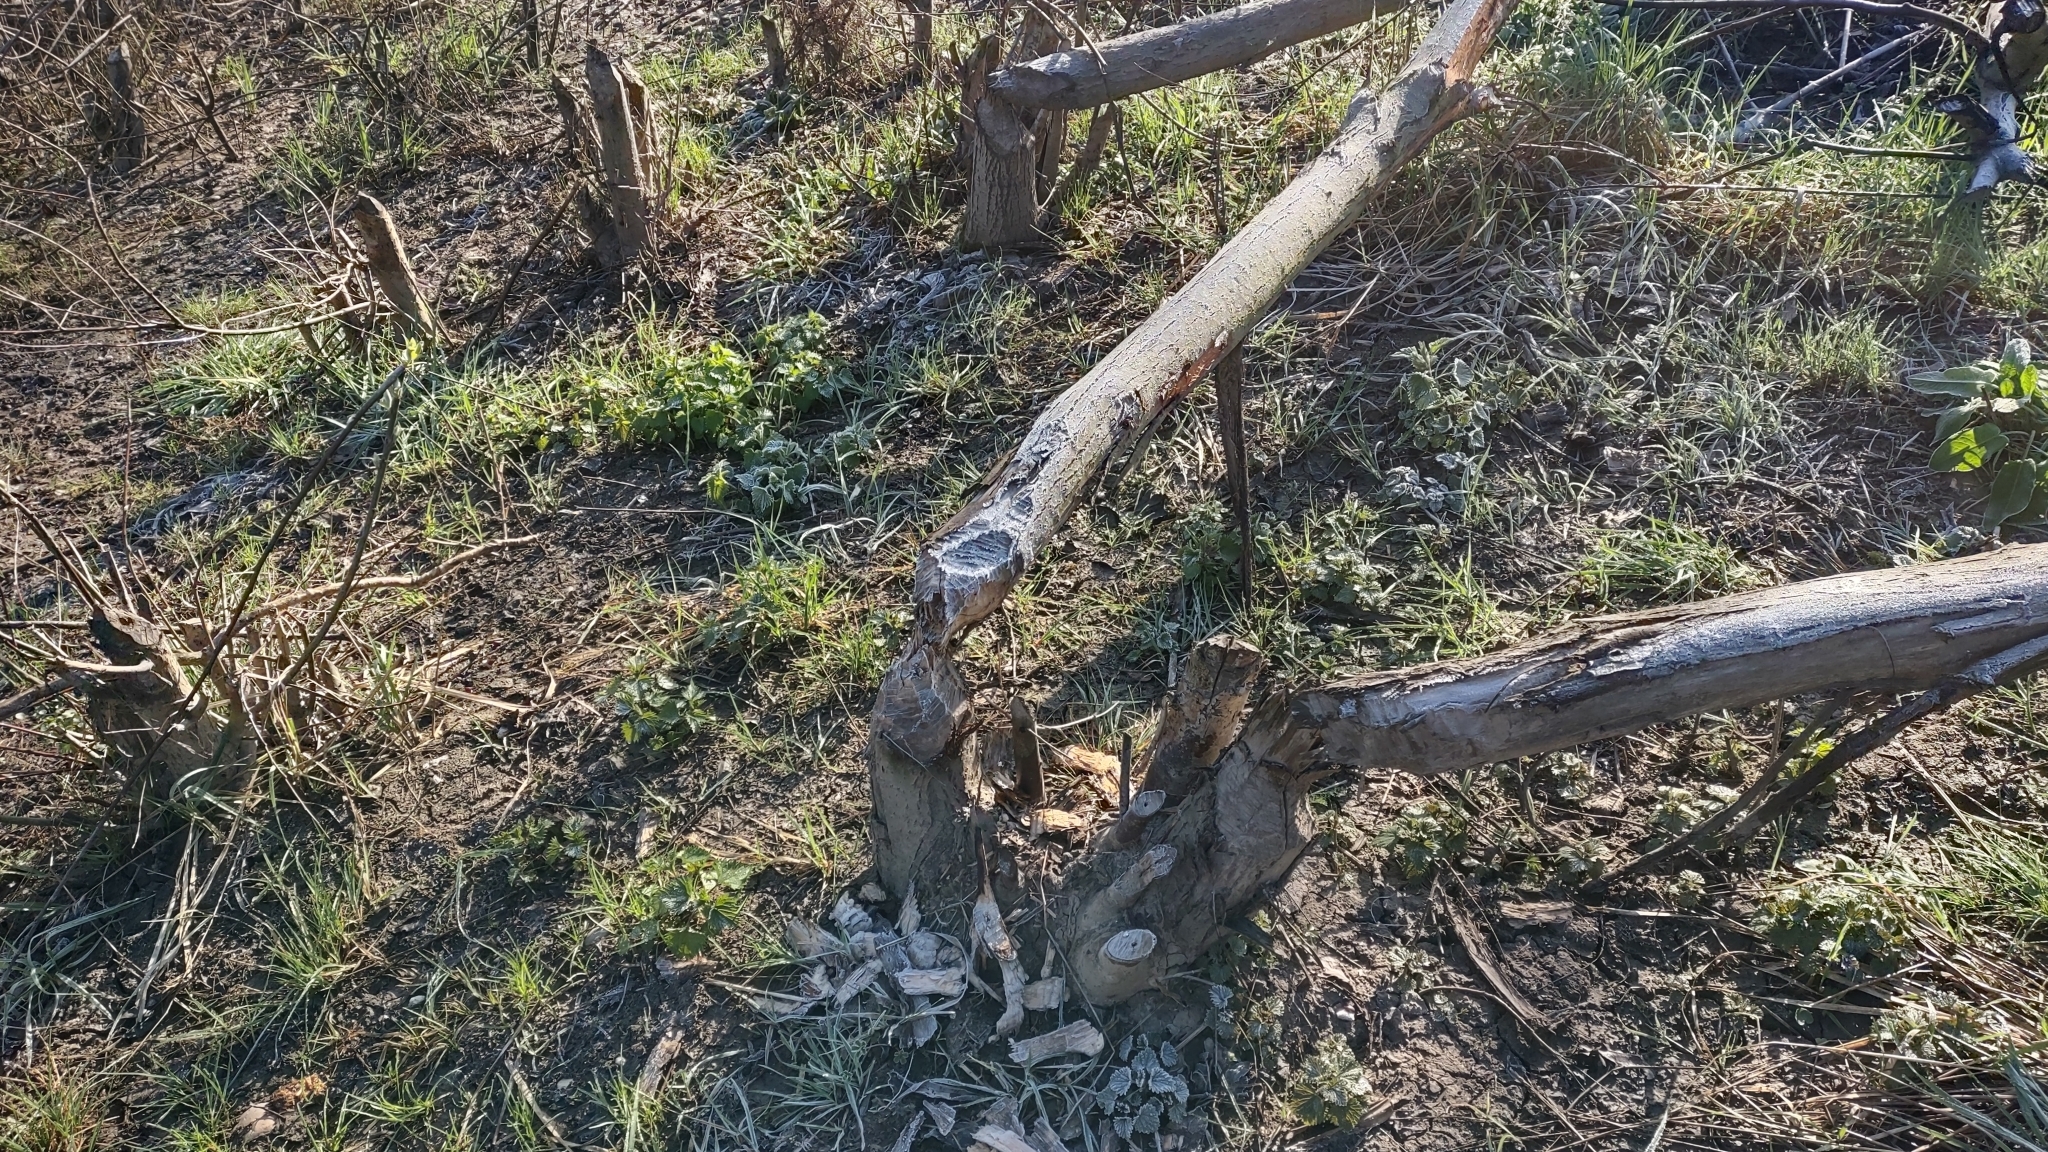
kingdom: Animalia
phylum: Chordata
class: Mammalia
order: Rodentia
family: Castoridae
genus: Castor
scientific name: Castor fiber
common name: Eurasian beaver
